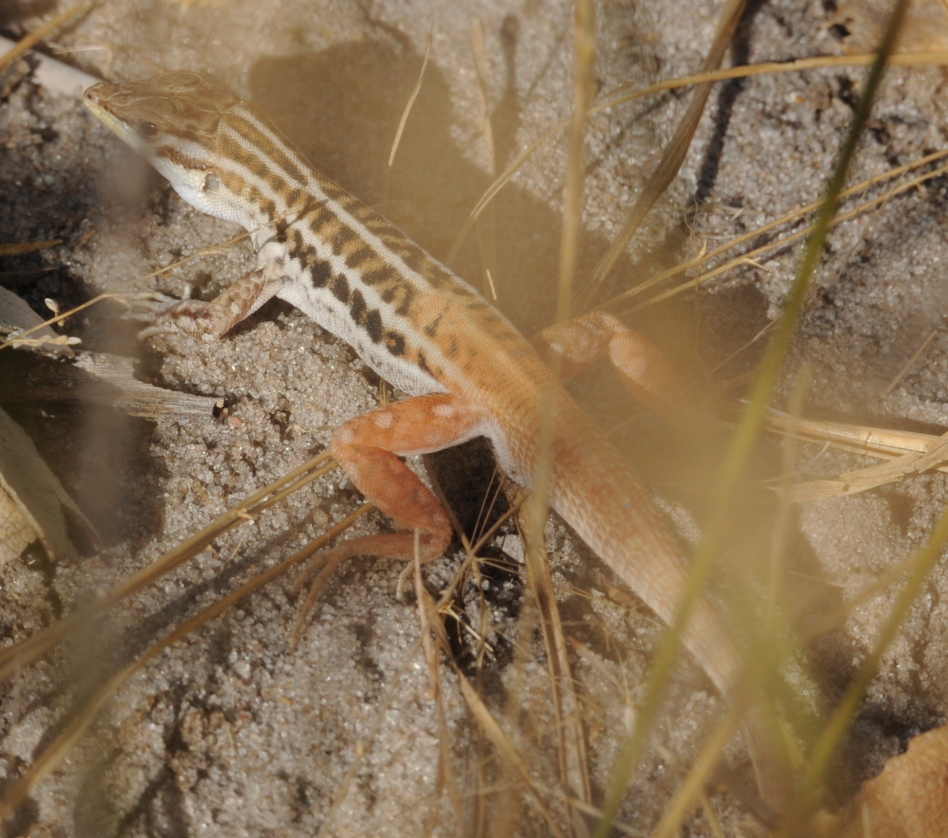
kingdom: Animalia
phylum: Chordata
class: Squamata
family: Lacertidae
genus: Heliobolus
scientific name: Heliobolus lugubris
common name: Bushveld lizard
